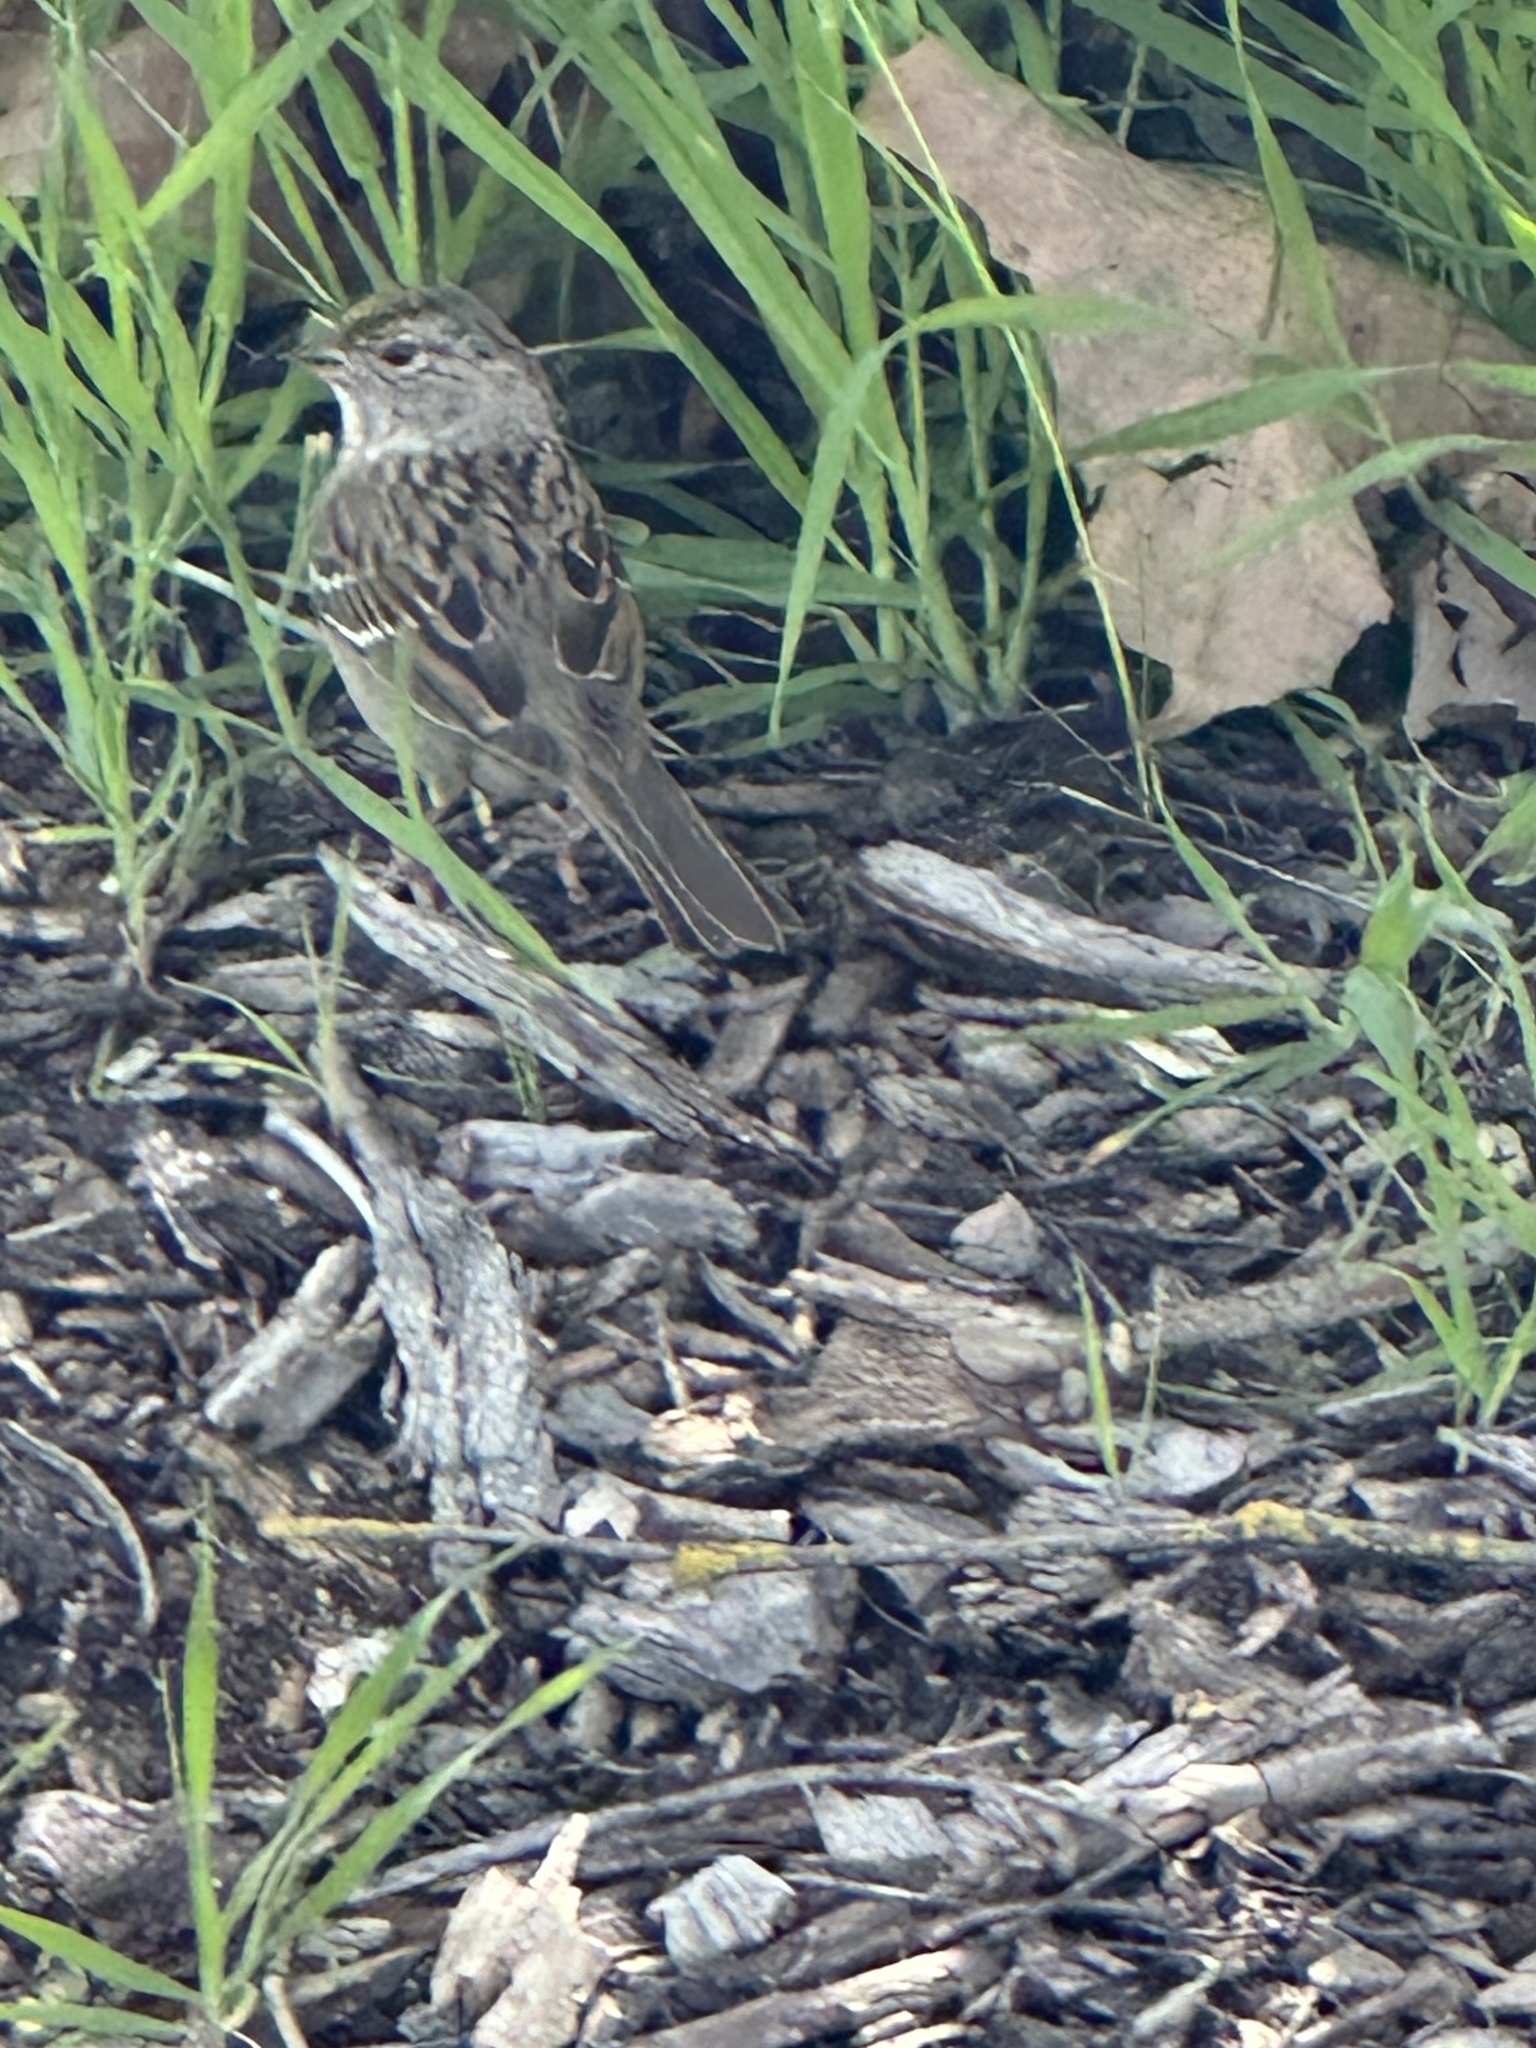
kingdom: Animalia
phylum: Chordata
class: Aves
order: Passeriformes
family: Passerellidae
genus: Zonotrichia
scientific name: Zonotrichia atricapilla
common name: Golden-crowned sparrow
